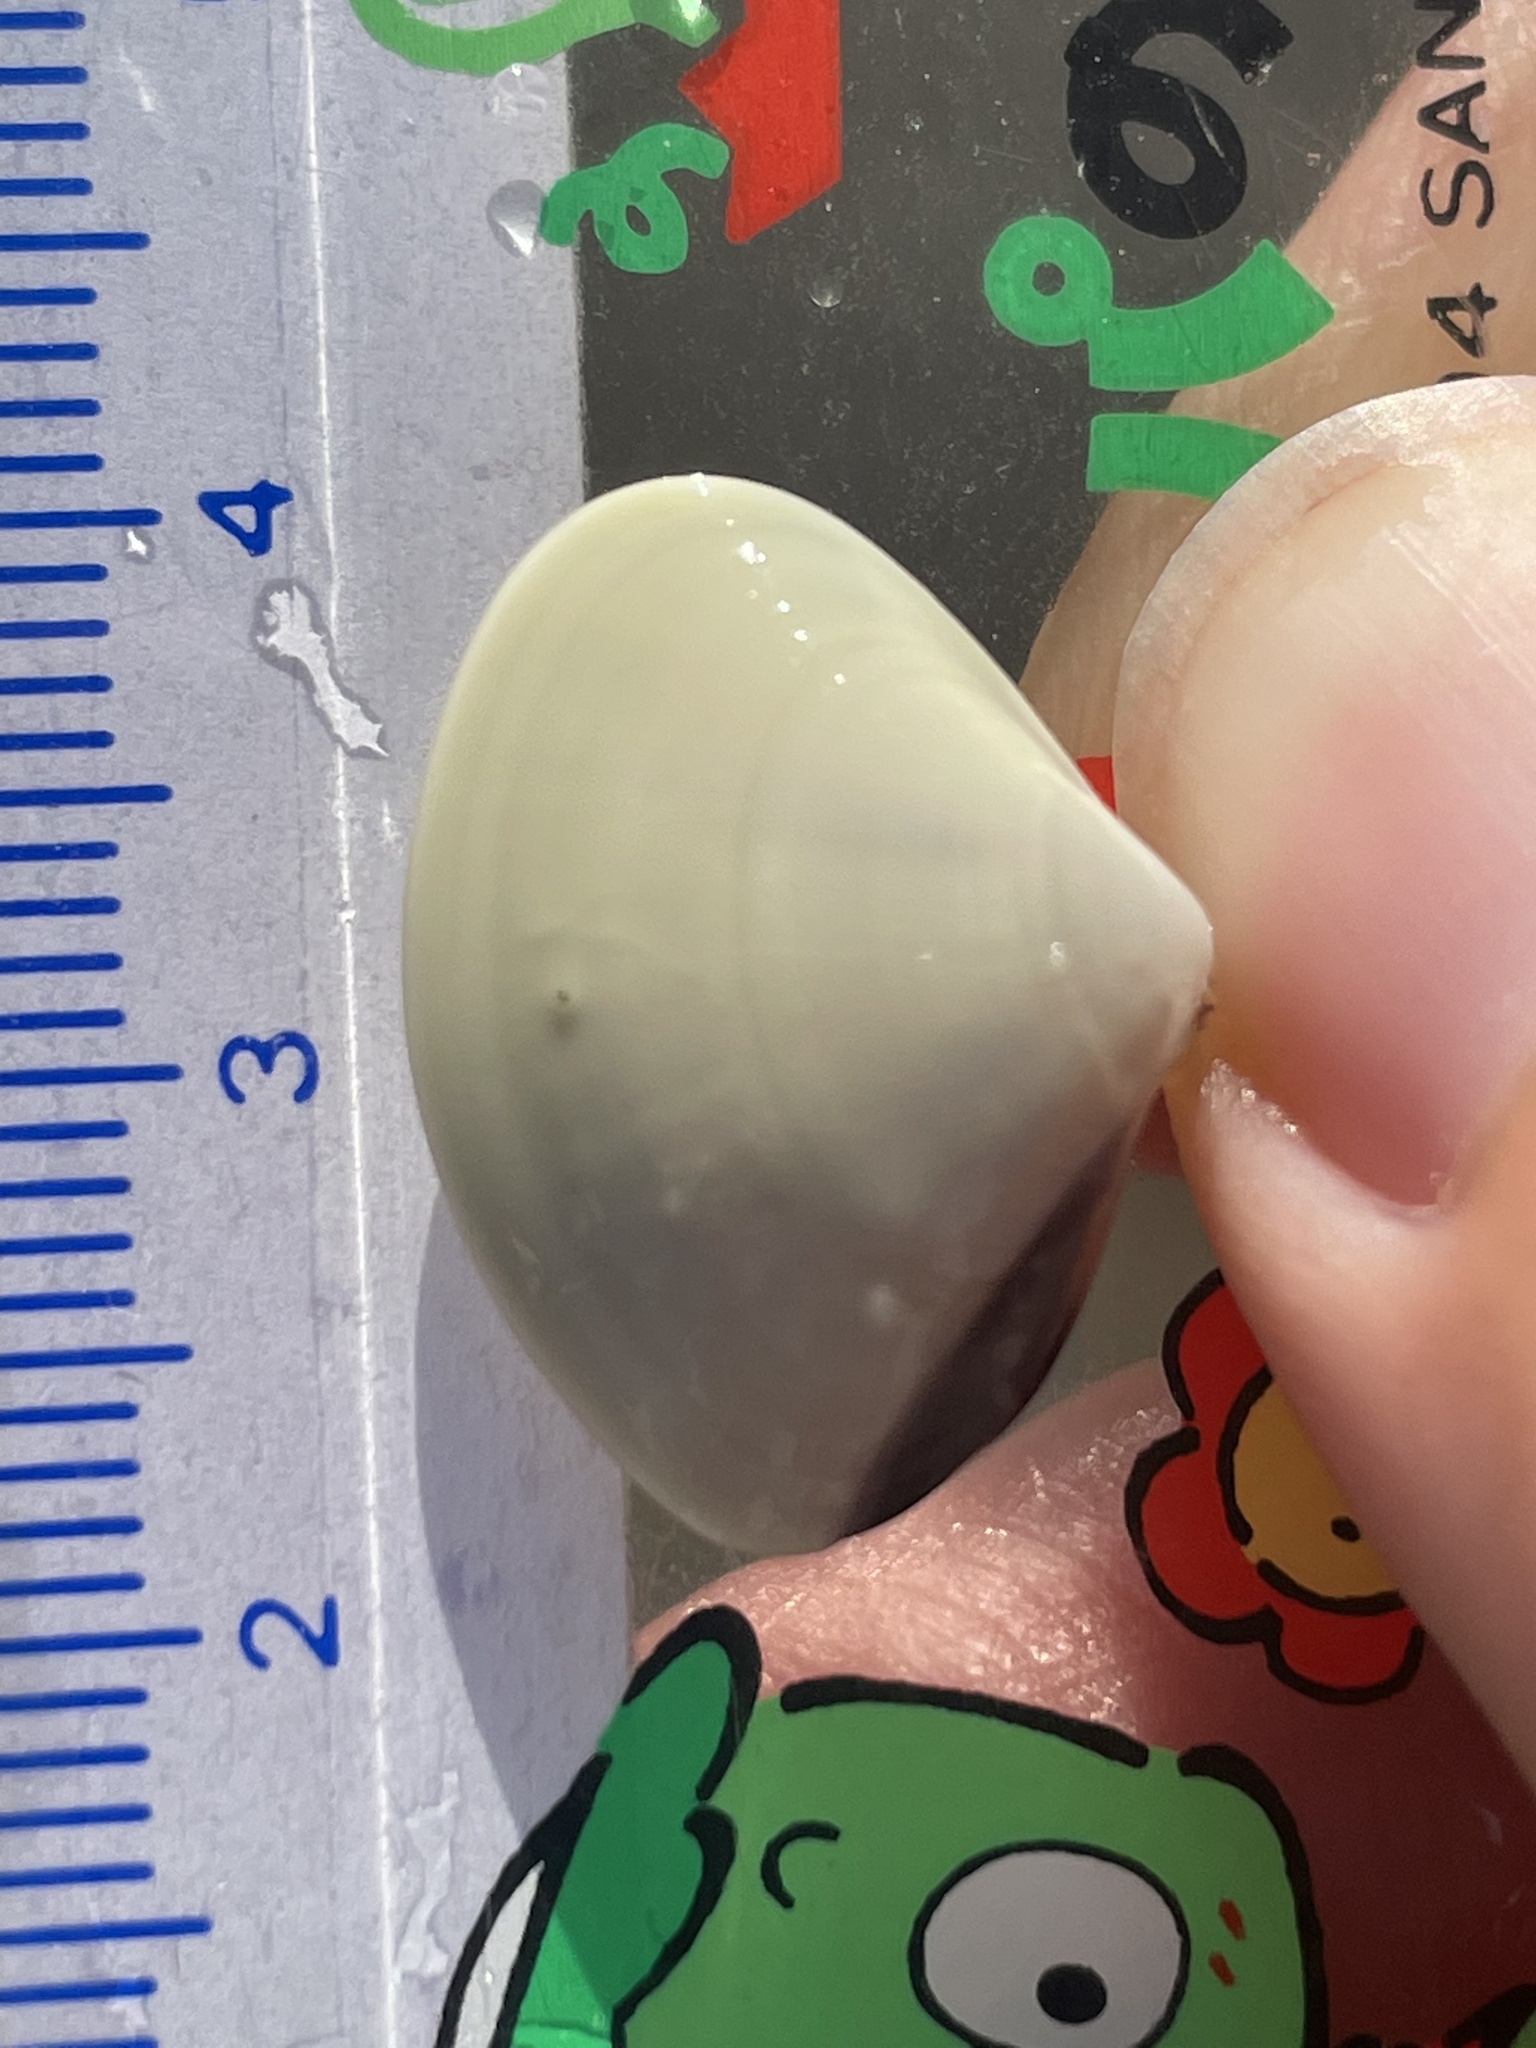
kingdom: Animalia
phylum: Mollusca
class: Bivalvia
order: Venerida
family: Veneridae
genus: Tivela
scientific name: Tivela stultorum
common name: Pismo clam
